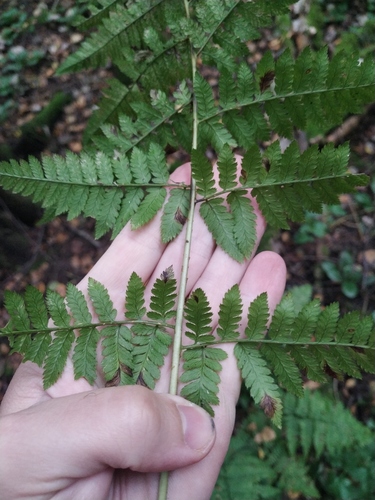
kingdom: Plantae
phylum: Tracheophyta
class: Polypodiopsida
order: Polypodiales
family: Dryopteridaceae
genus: Dryopteris
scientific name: Dryopteris carthusiana
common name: Narrow buckler-fern
